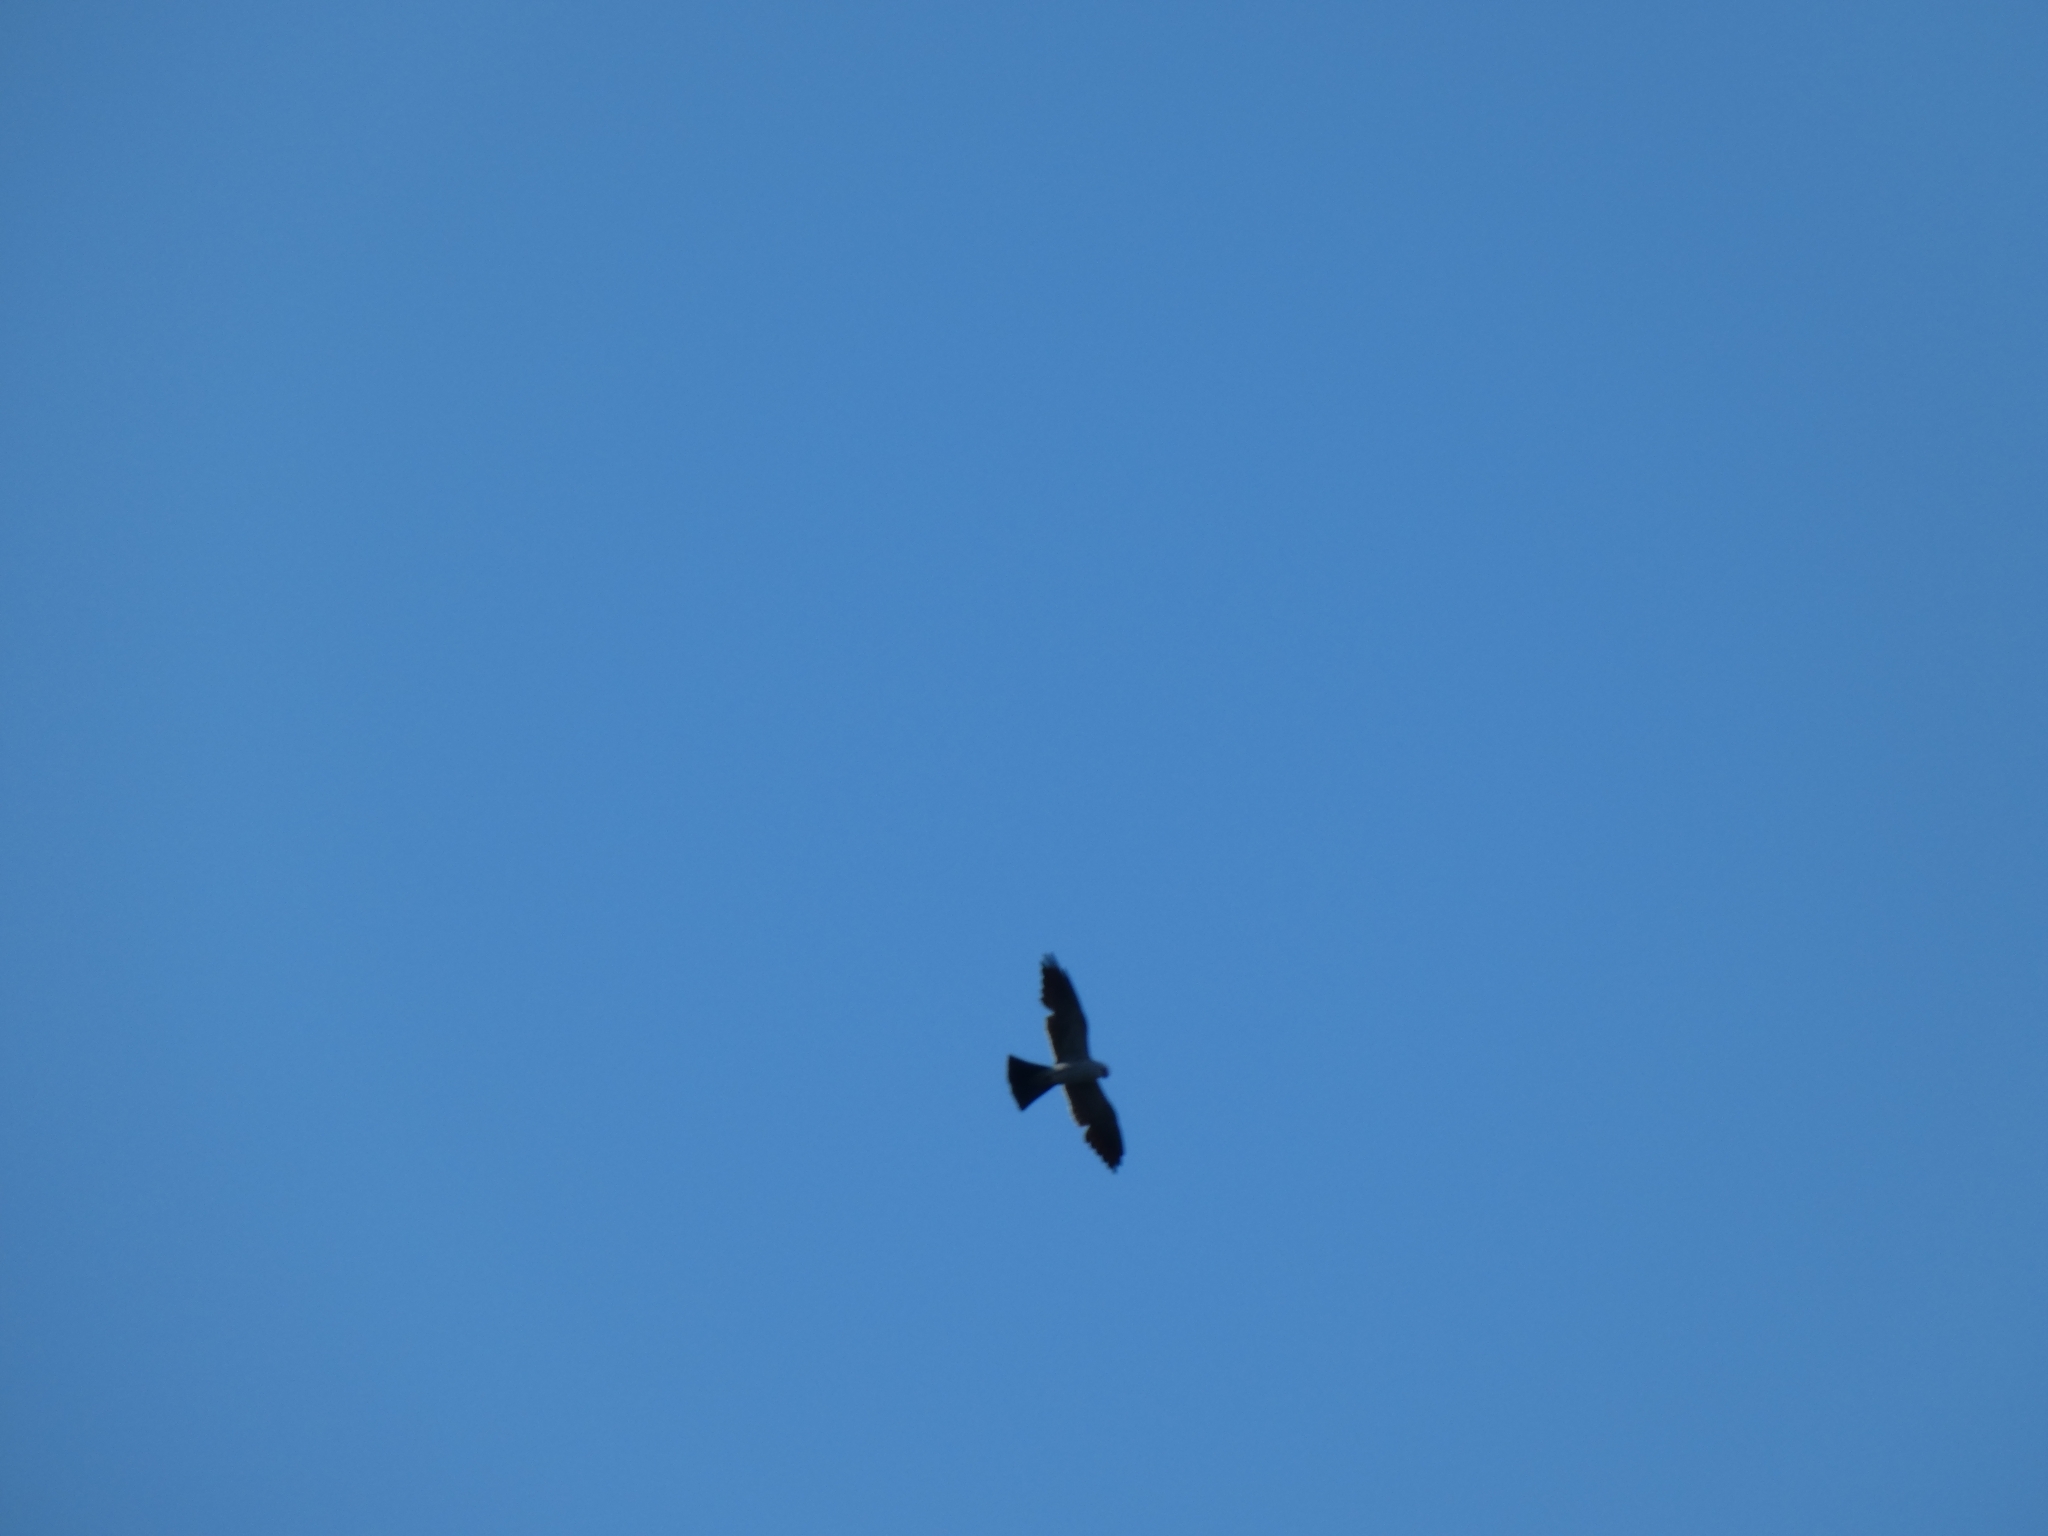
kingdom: Animalia
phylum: Chordata
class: Aves
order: Accipitriformes
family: Accipitridae
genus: Ictinia
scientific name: Ictinia mississippiensis
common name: Mississippi kite
